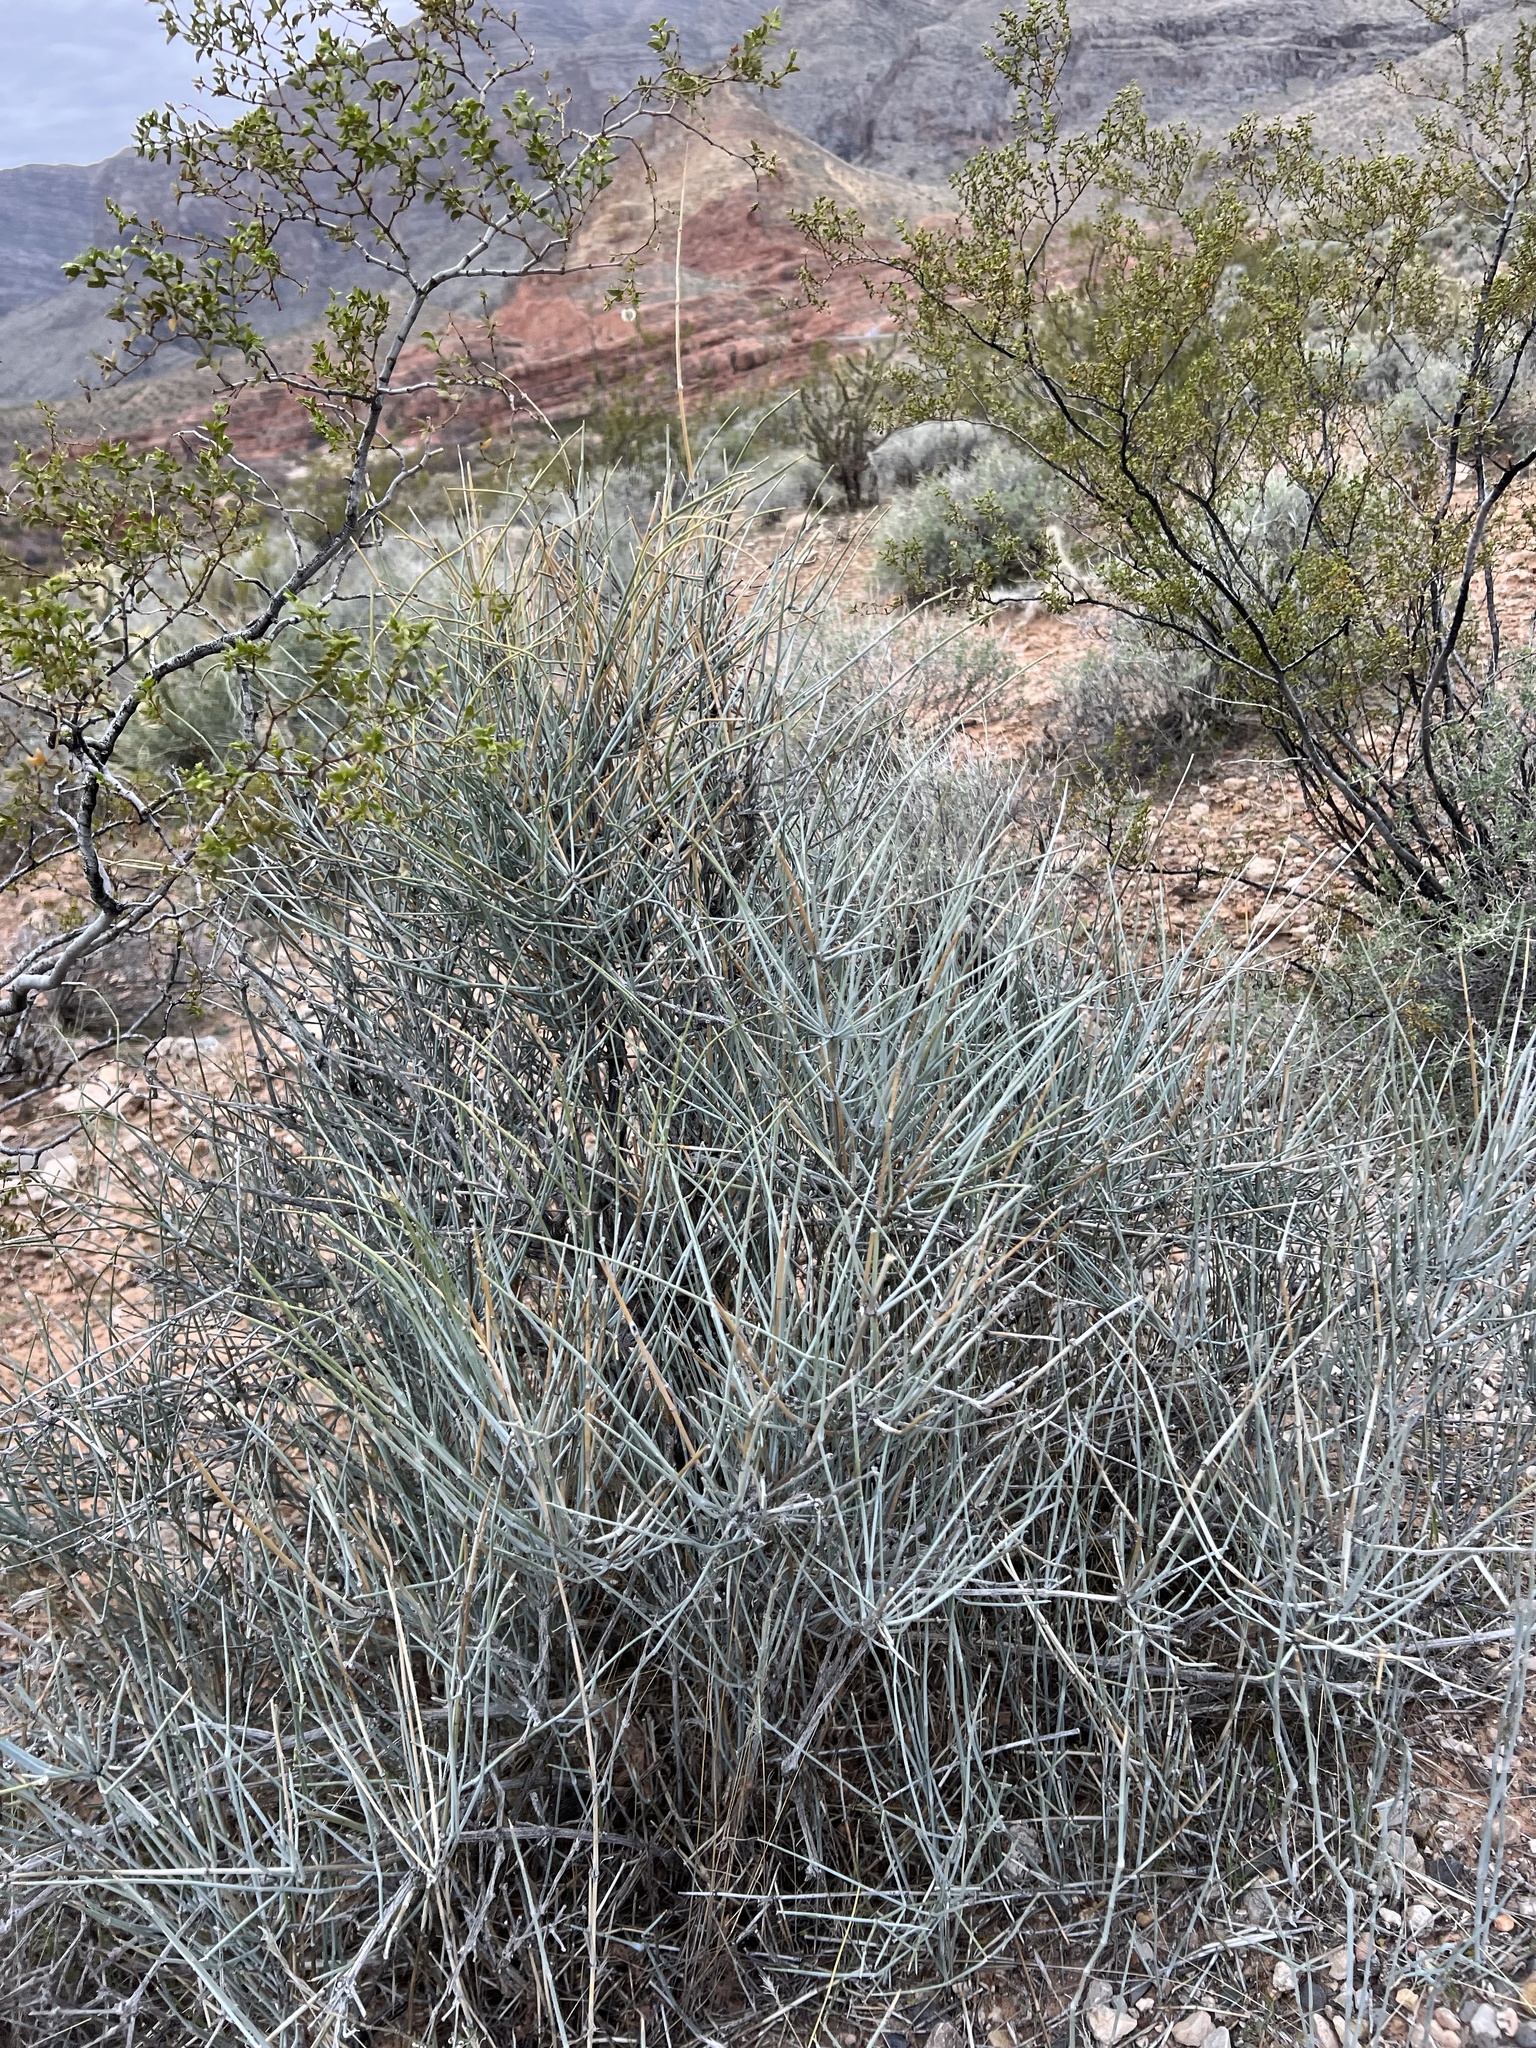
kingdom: Plantae
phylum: Tracheophyta
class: Gnetopsida
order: Ephedrales
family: Ephedraceae
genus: Ephedra
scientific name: Ephedra nevadensis
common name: Gray ephedra
